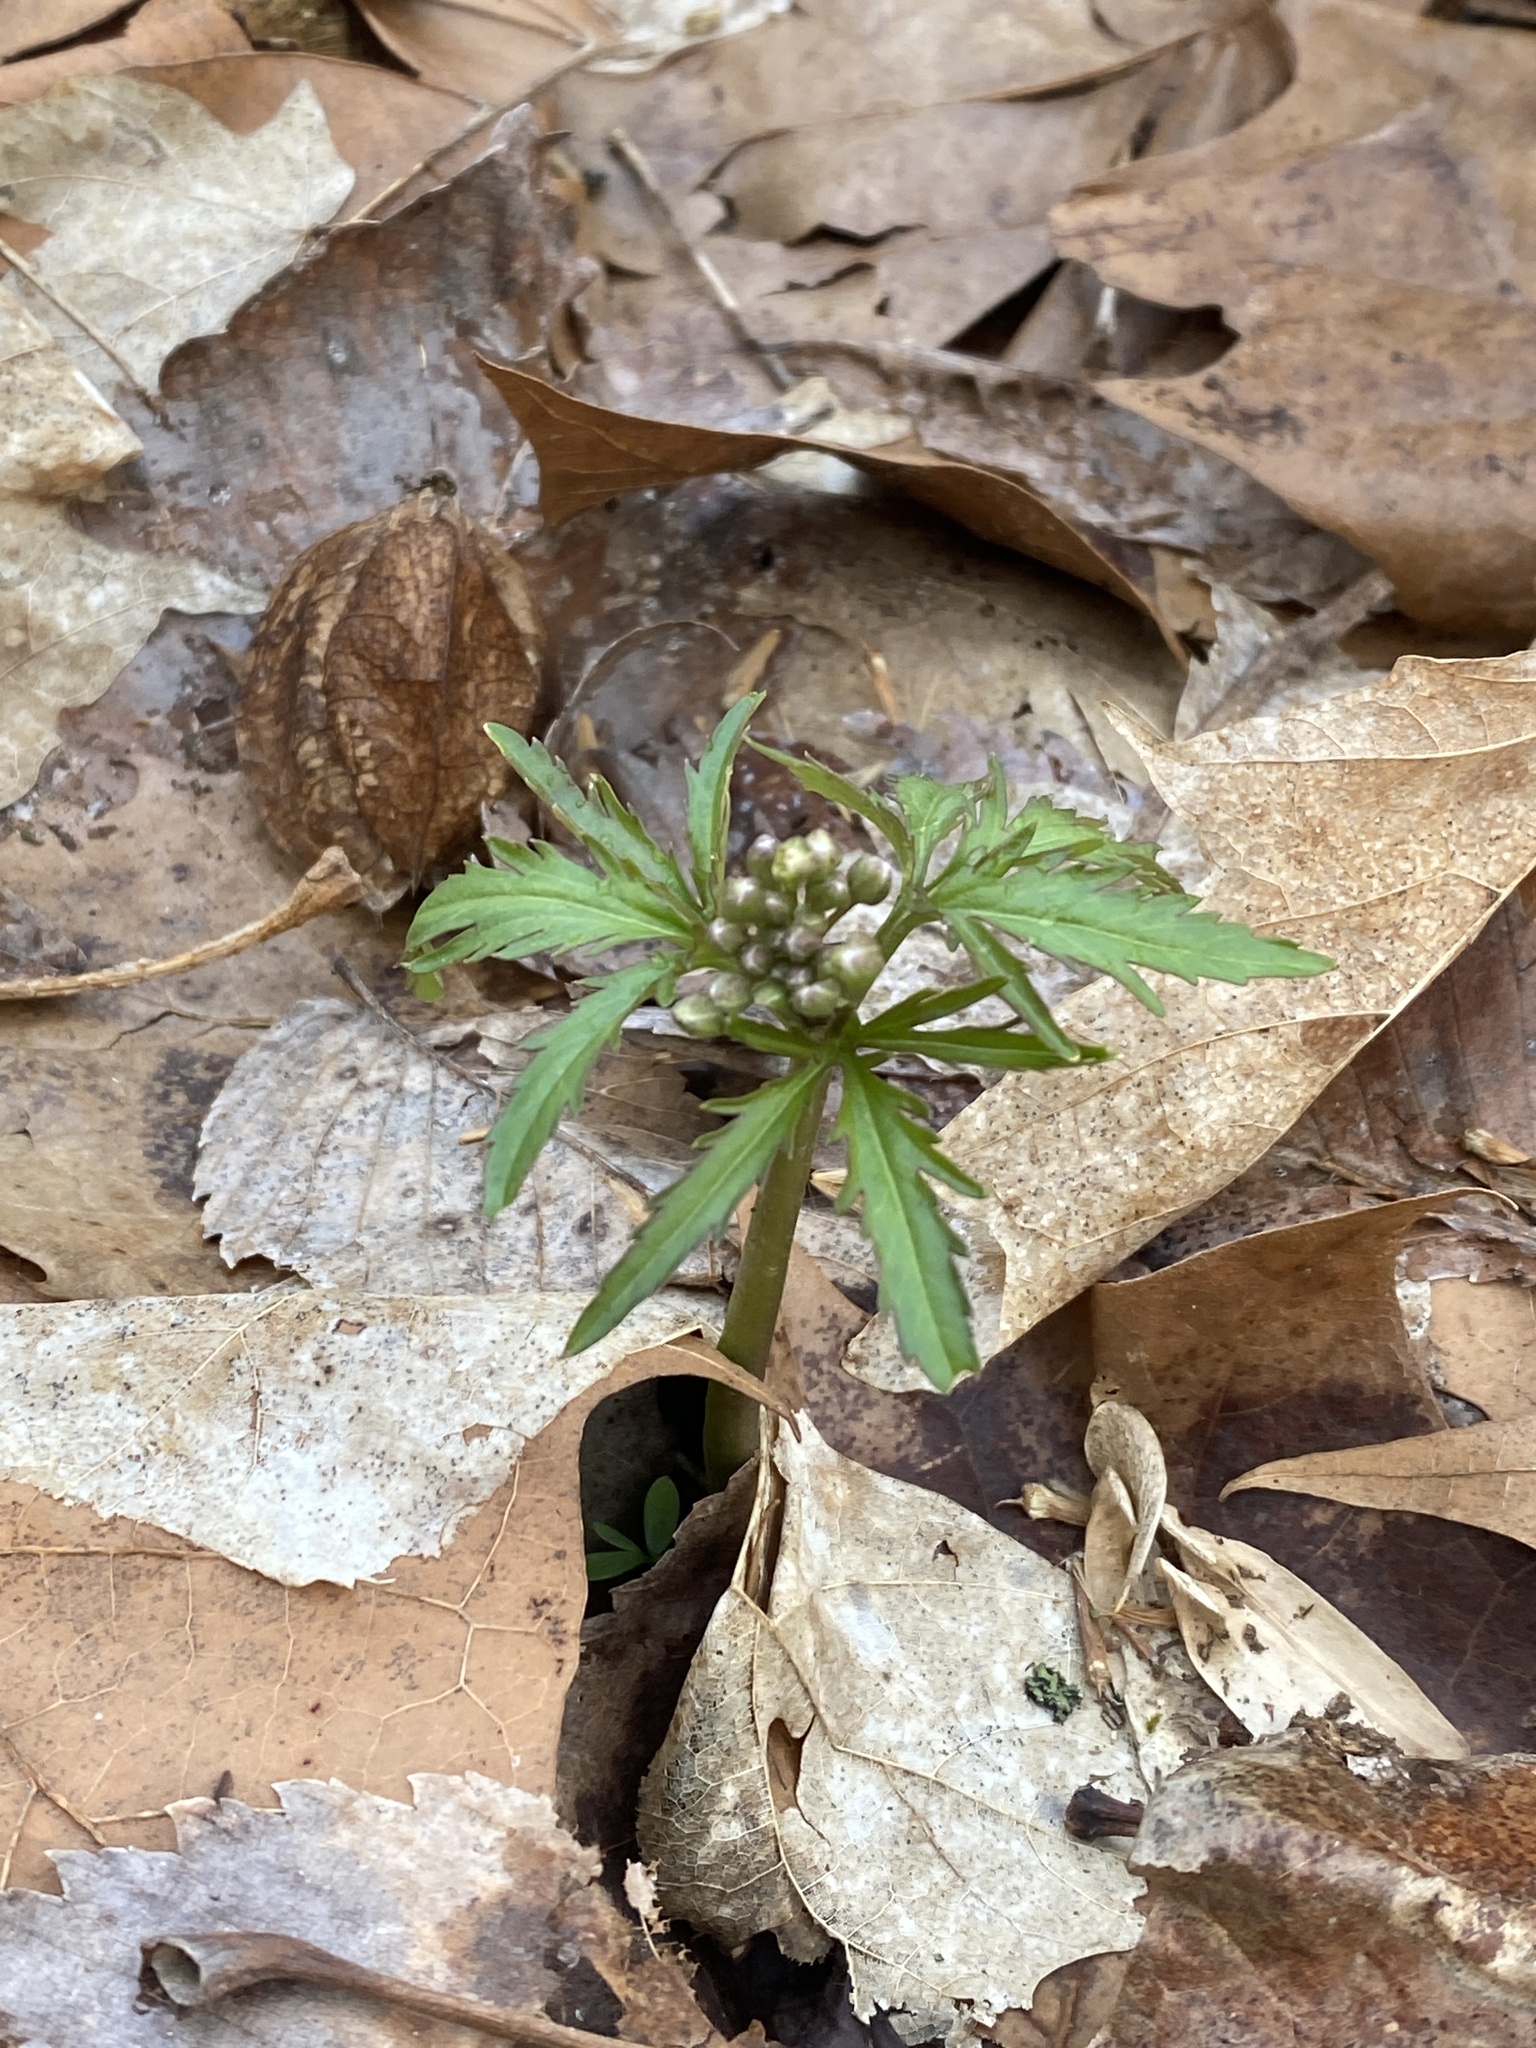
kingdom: Plantae
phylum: Tracheophyta
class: Magnoliopsida
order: Brassicales
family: Brassicaceae
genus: Cardamine
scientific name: Cardamine concatenata
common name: Cut-leaf toothcup
